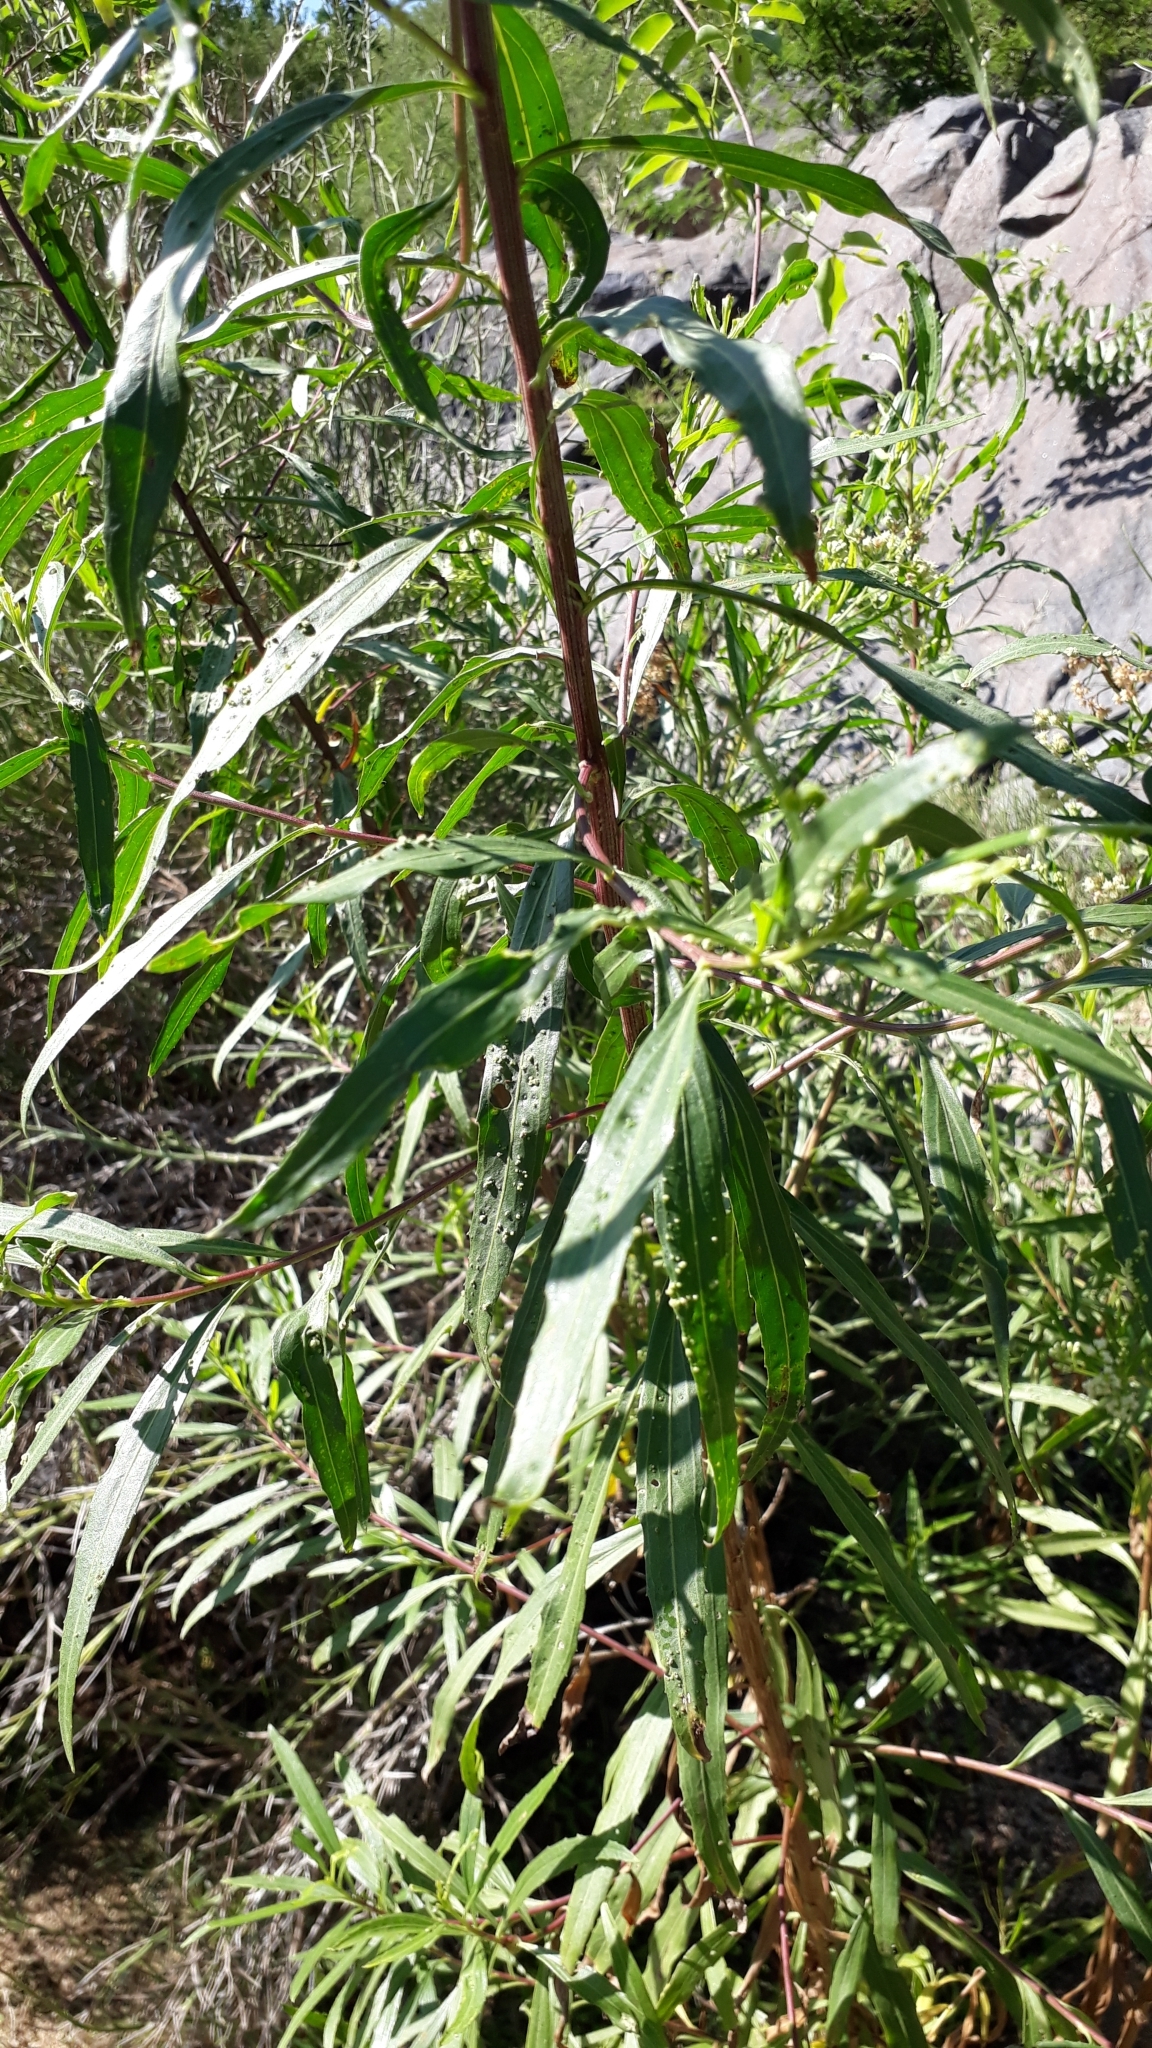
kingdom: Plantae
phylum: Tracheophyta
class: Magnoliopsida
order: Asterales
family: Asteraceae
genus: Baccharis
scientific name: Baccharis salicifolia
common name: Sticky baccharis
